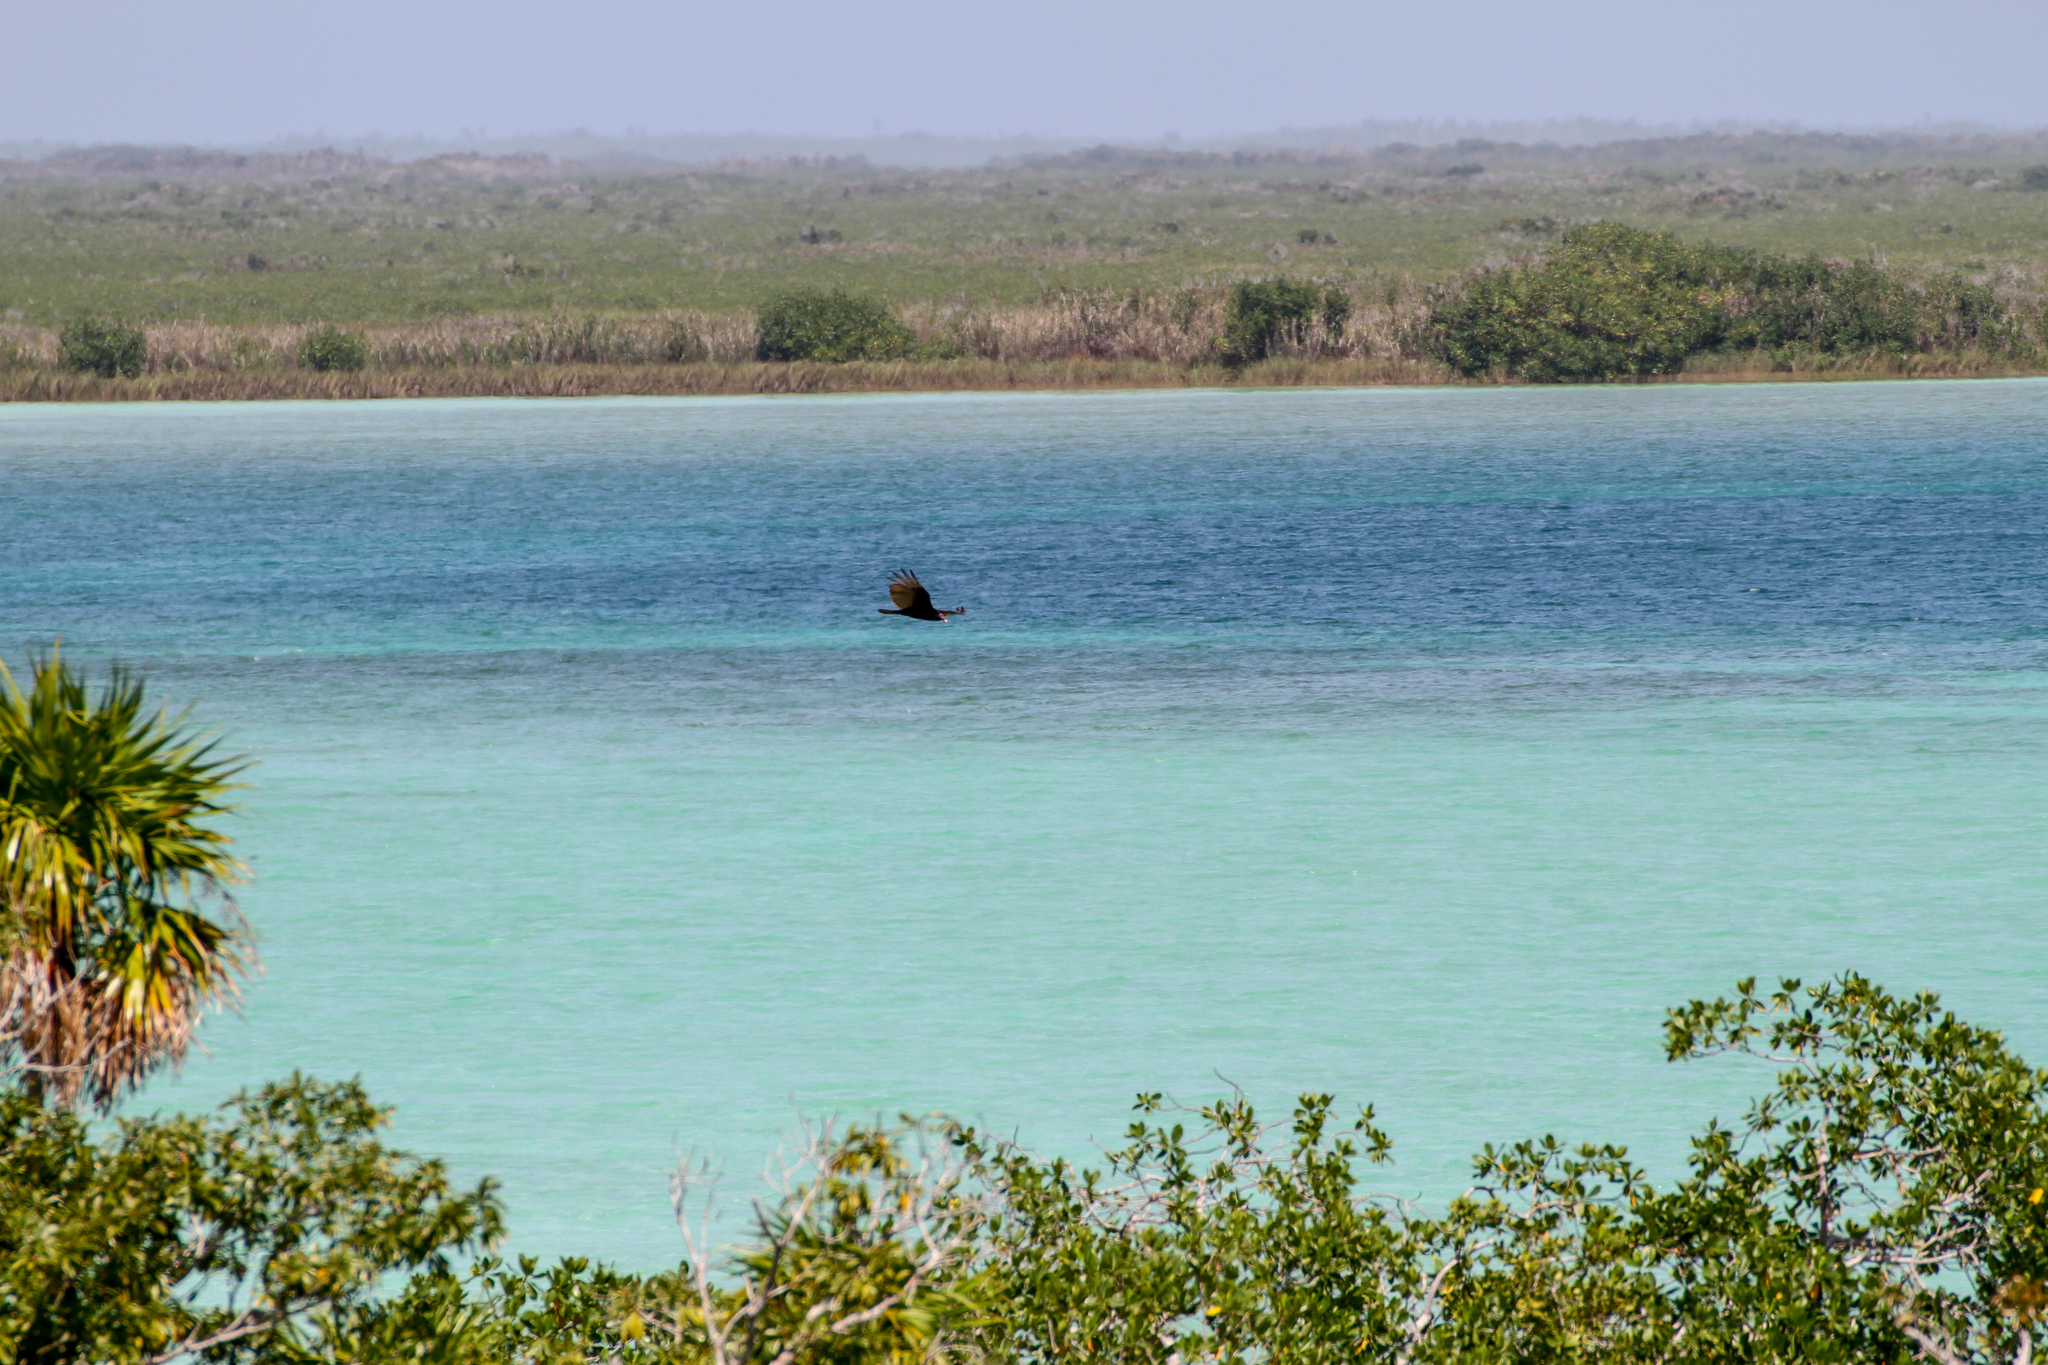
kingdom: Animalia
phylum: Chordata
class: Aves
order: Accipitriformes
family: Cathartidae
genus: Cathartes
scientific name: Cathartes aura
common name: Turkey vulture
